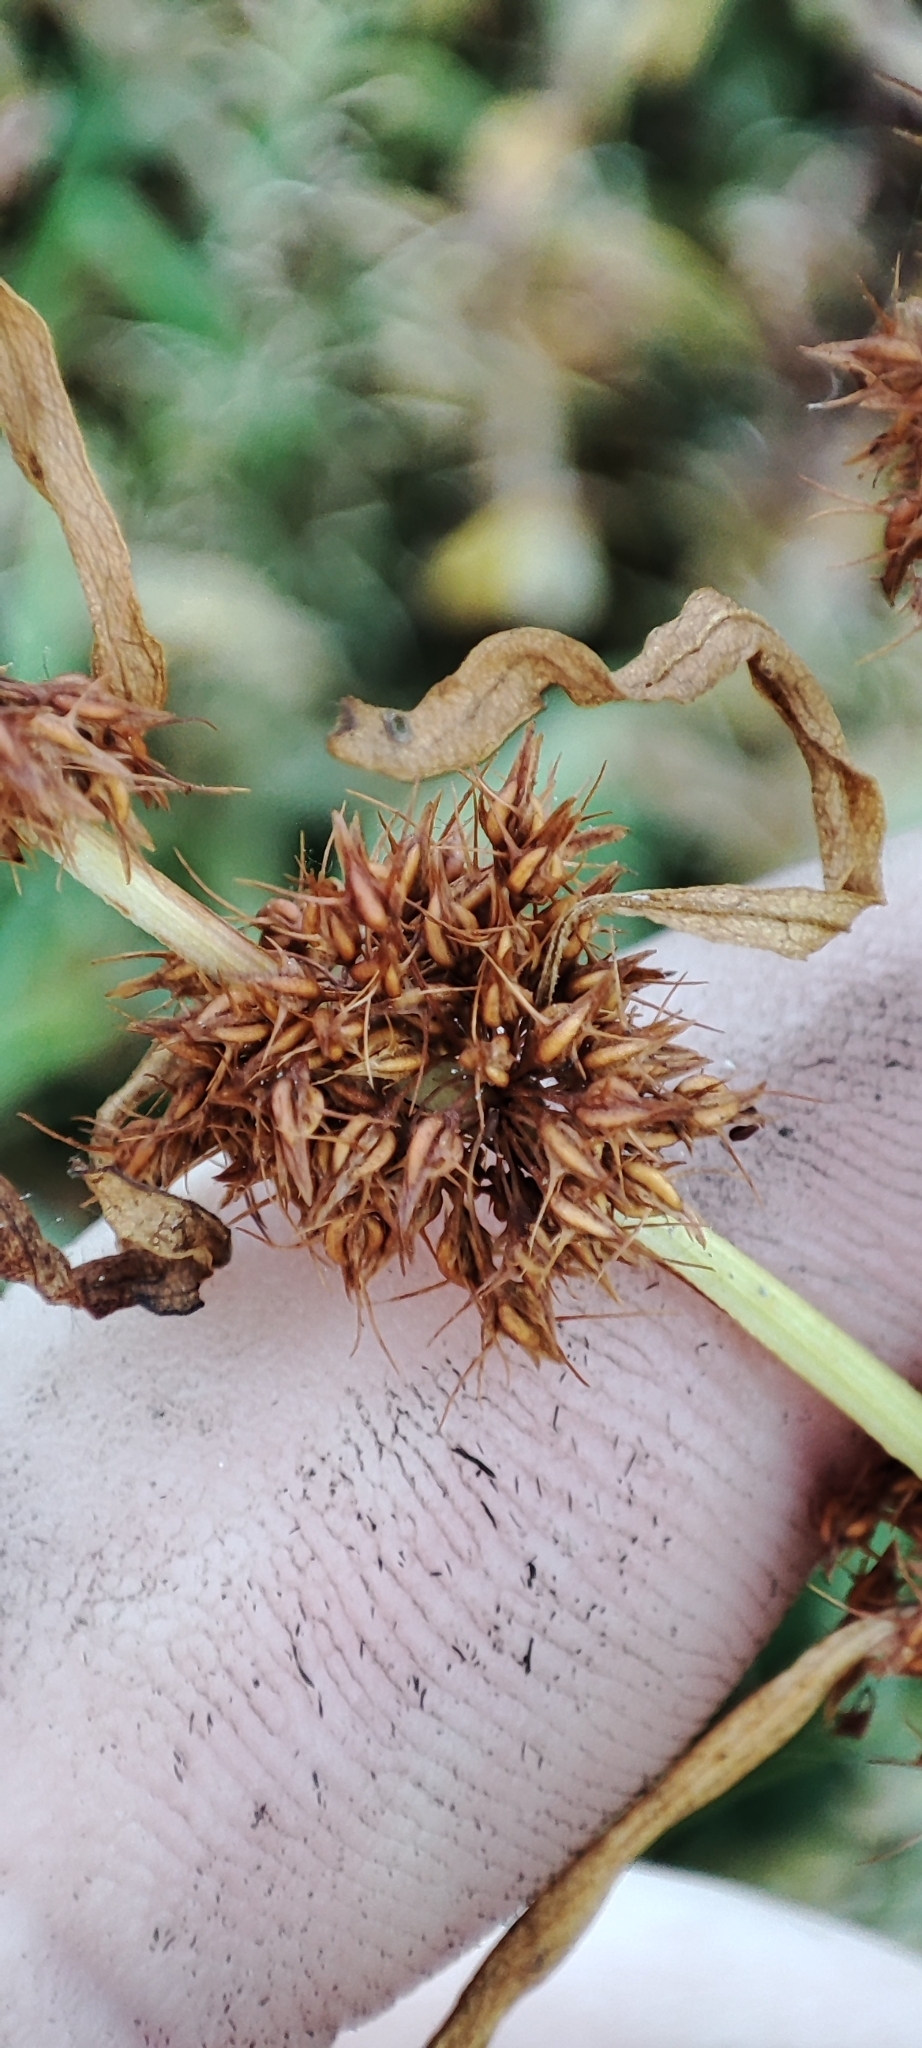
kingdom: Plantae
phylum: Tracheophyta
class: Magnoliopsida
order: Caryophyllales
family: Polygonaceae
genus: Rumex
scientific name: Rumex maritimus
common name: Golden dock
